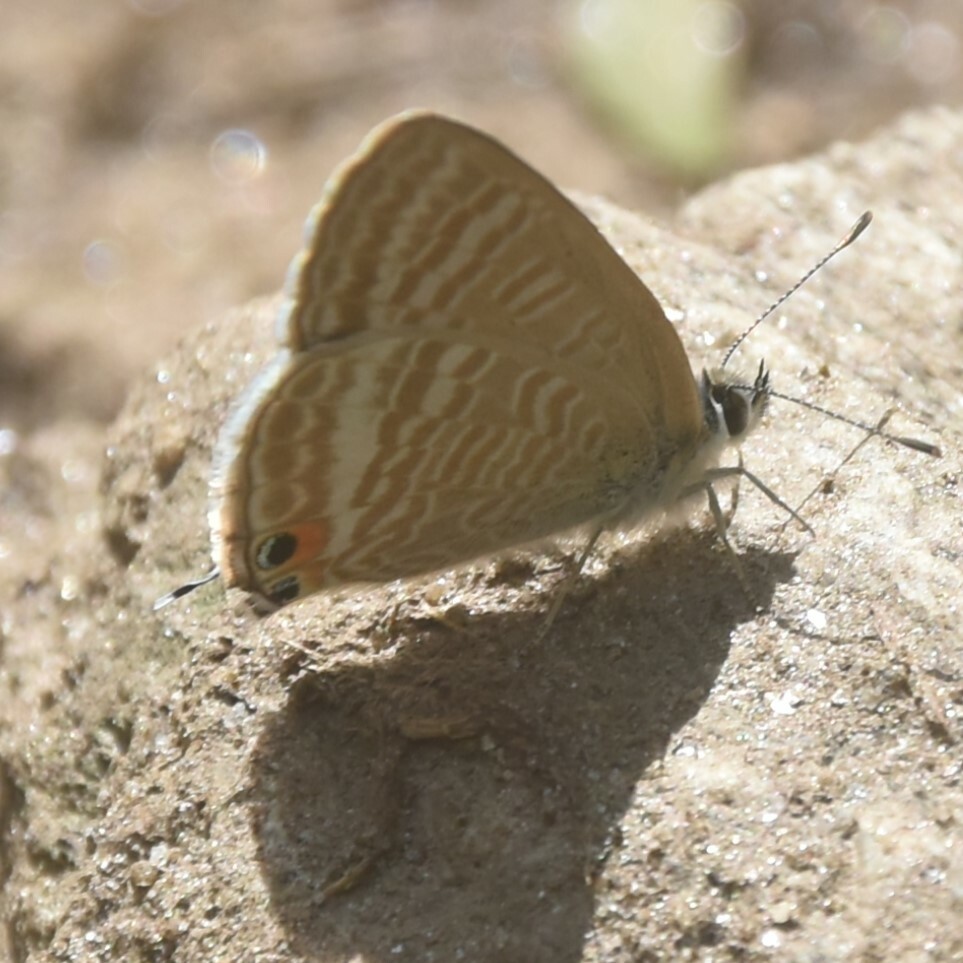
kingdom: Animalia
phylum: Arthropoda
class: Insecta
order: Lepidoptera
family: Lycaenidae
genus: Lampides
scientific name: Lampides boeticus
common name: Long-tailed blue
